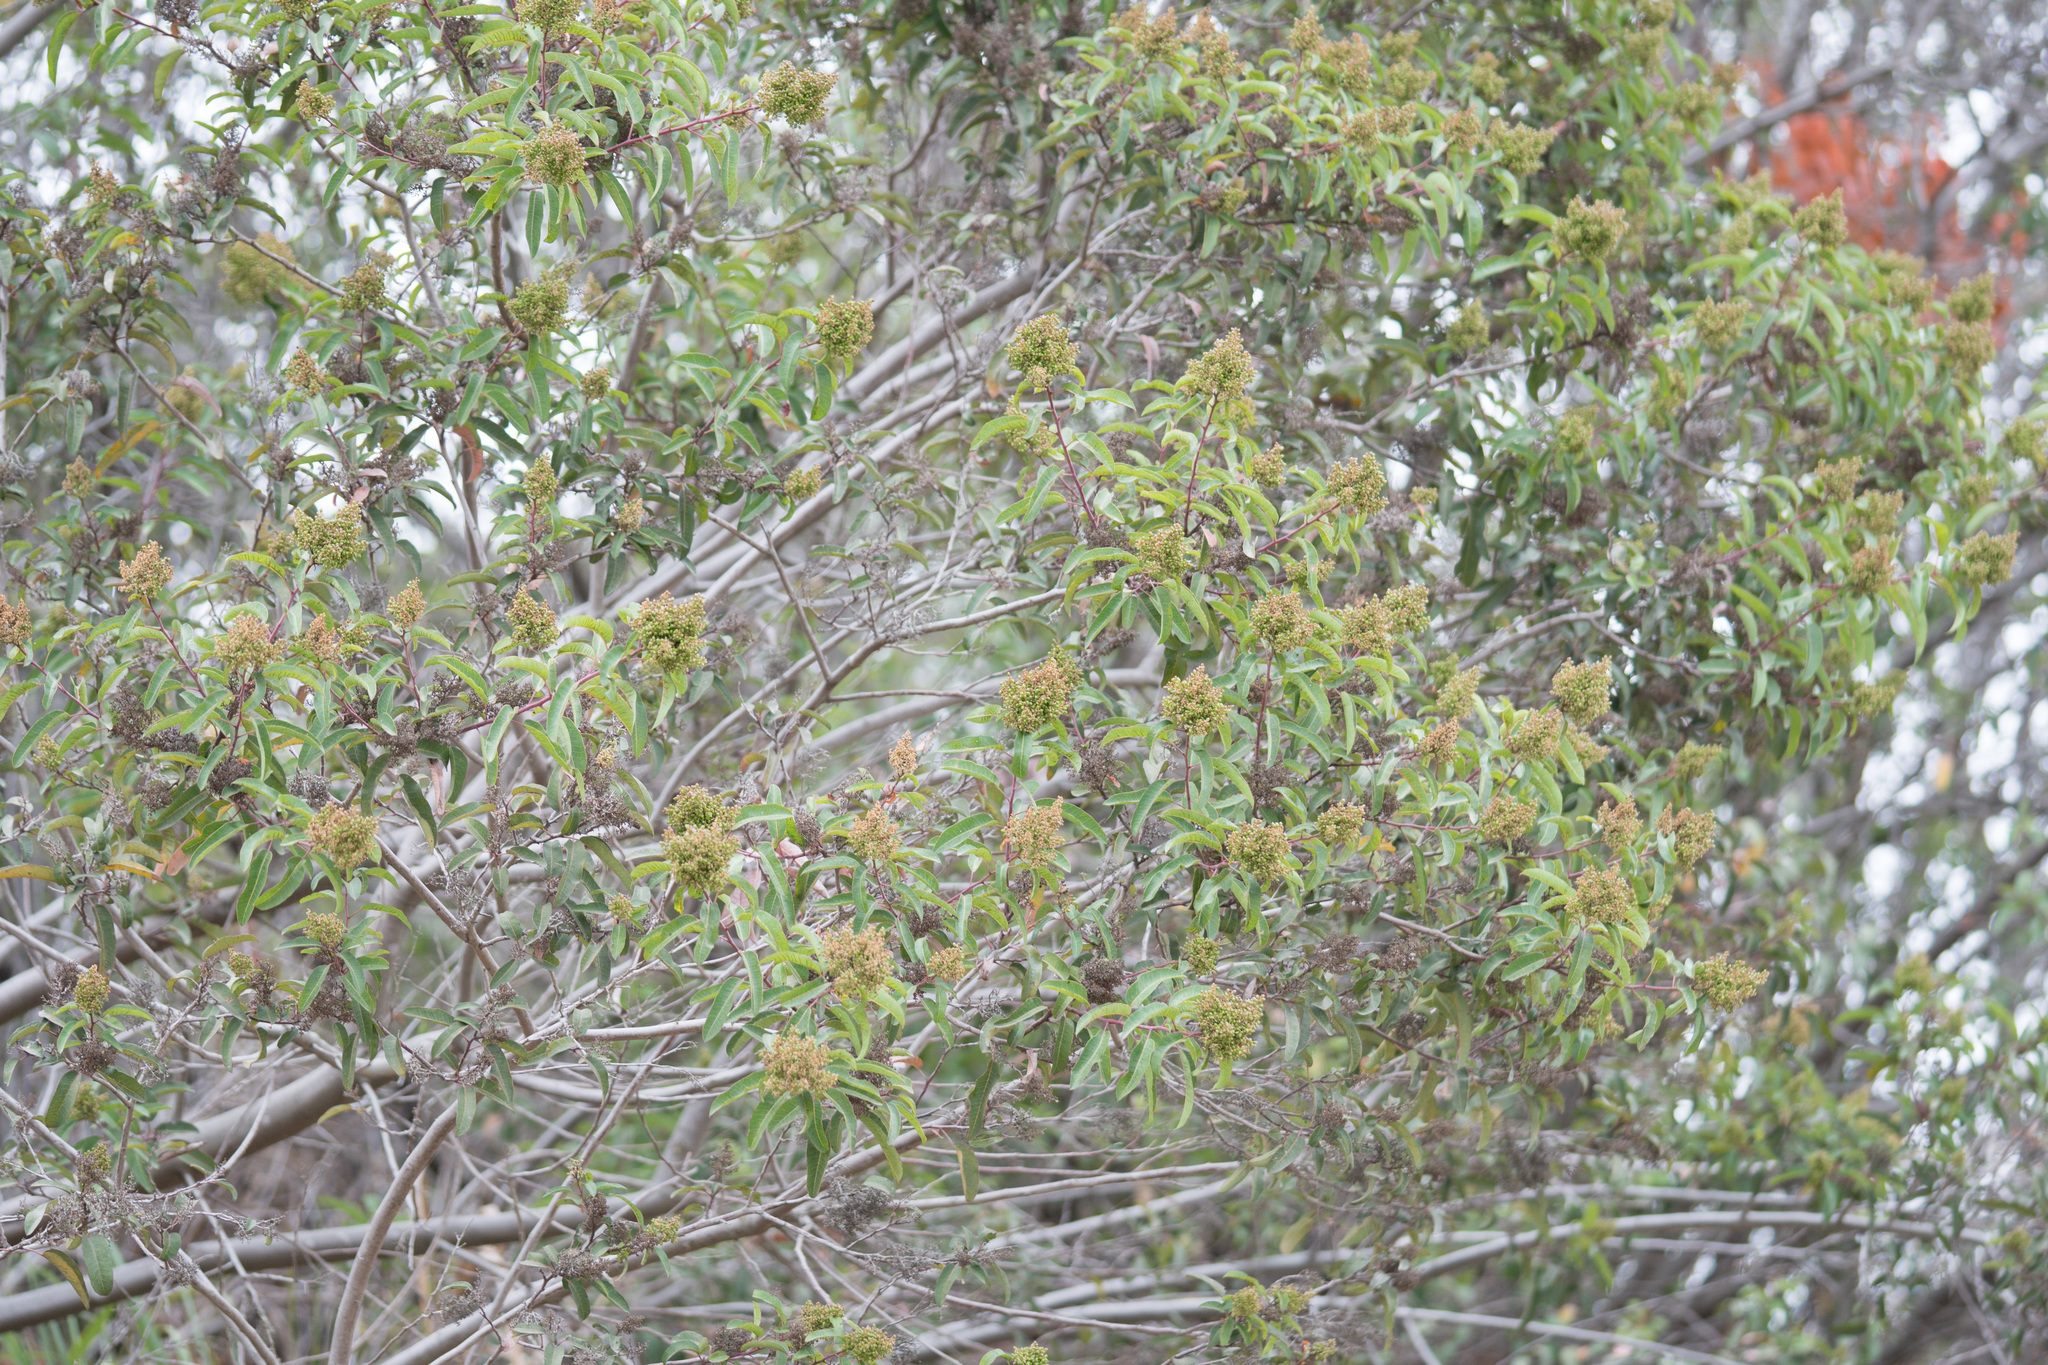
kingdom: Plantae
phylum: Tracheophyta
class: Magnoliopsida
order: Sapindales
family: Anacardiaceae
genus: Malosma
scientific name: Malosma laurina
